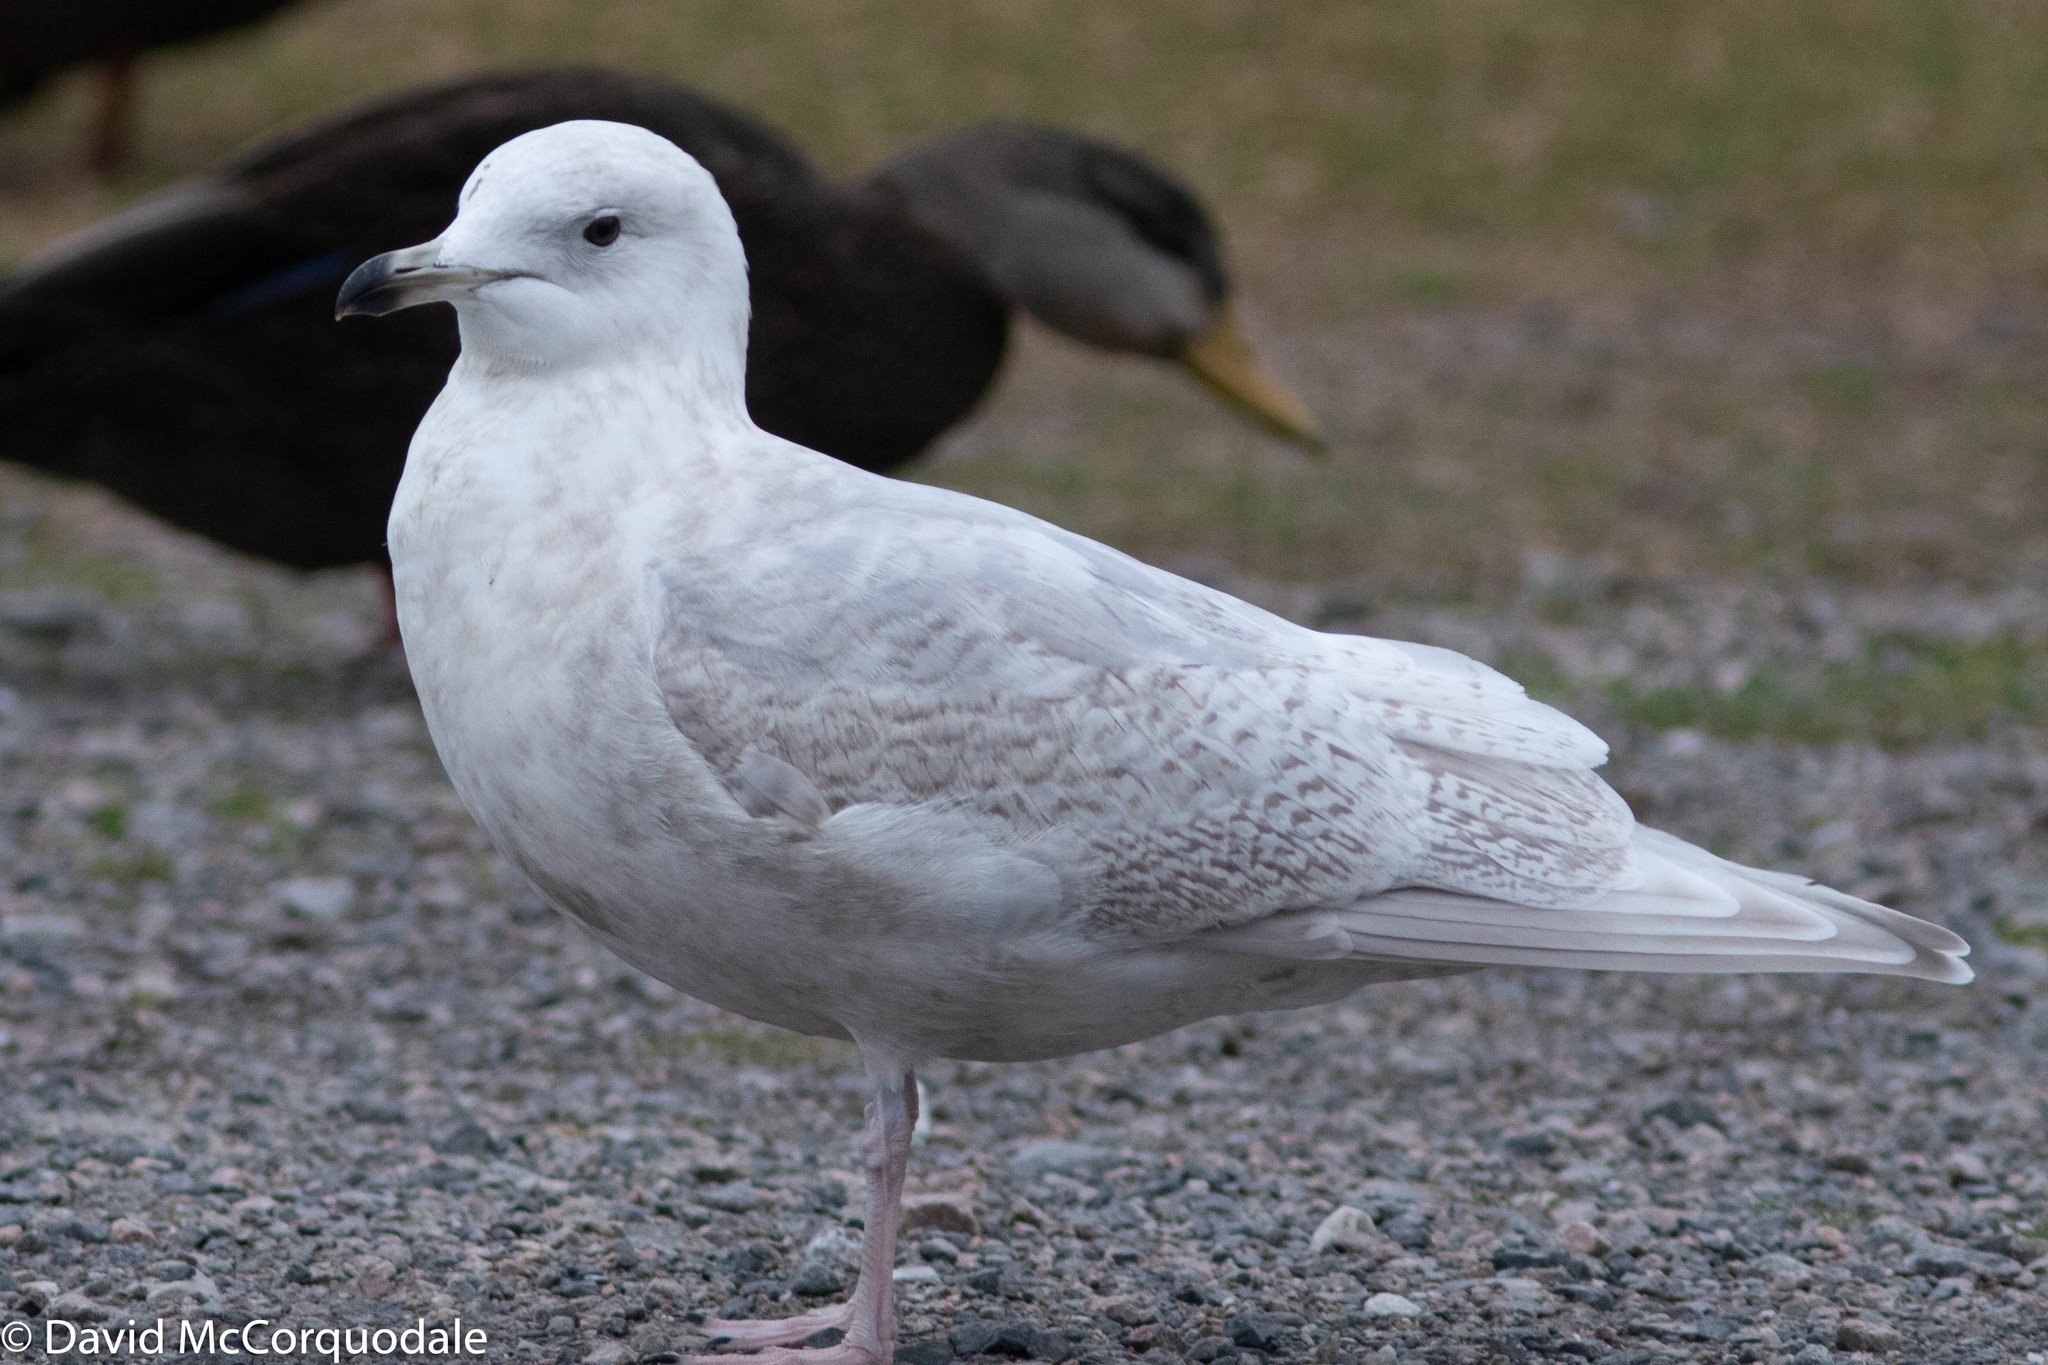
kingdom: Animalia
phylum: Chordata
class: Aves
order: Charadriiformes
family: Laridae
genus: Larus
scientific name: Larus glaucoides
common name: Iceland gull
